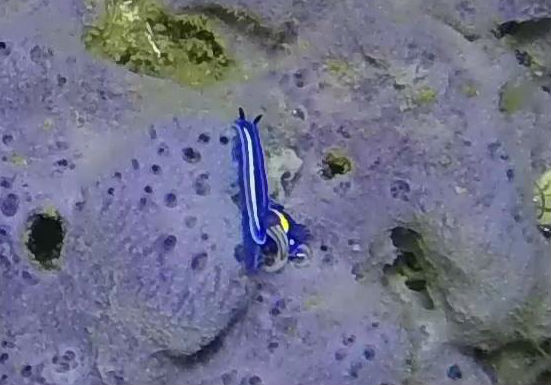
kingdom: Animalia
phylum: Mollusca
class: Gastropoda
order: Nudibranchia
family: Chromodorididae
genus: Felimare
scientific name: Felimare porterae
